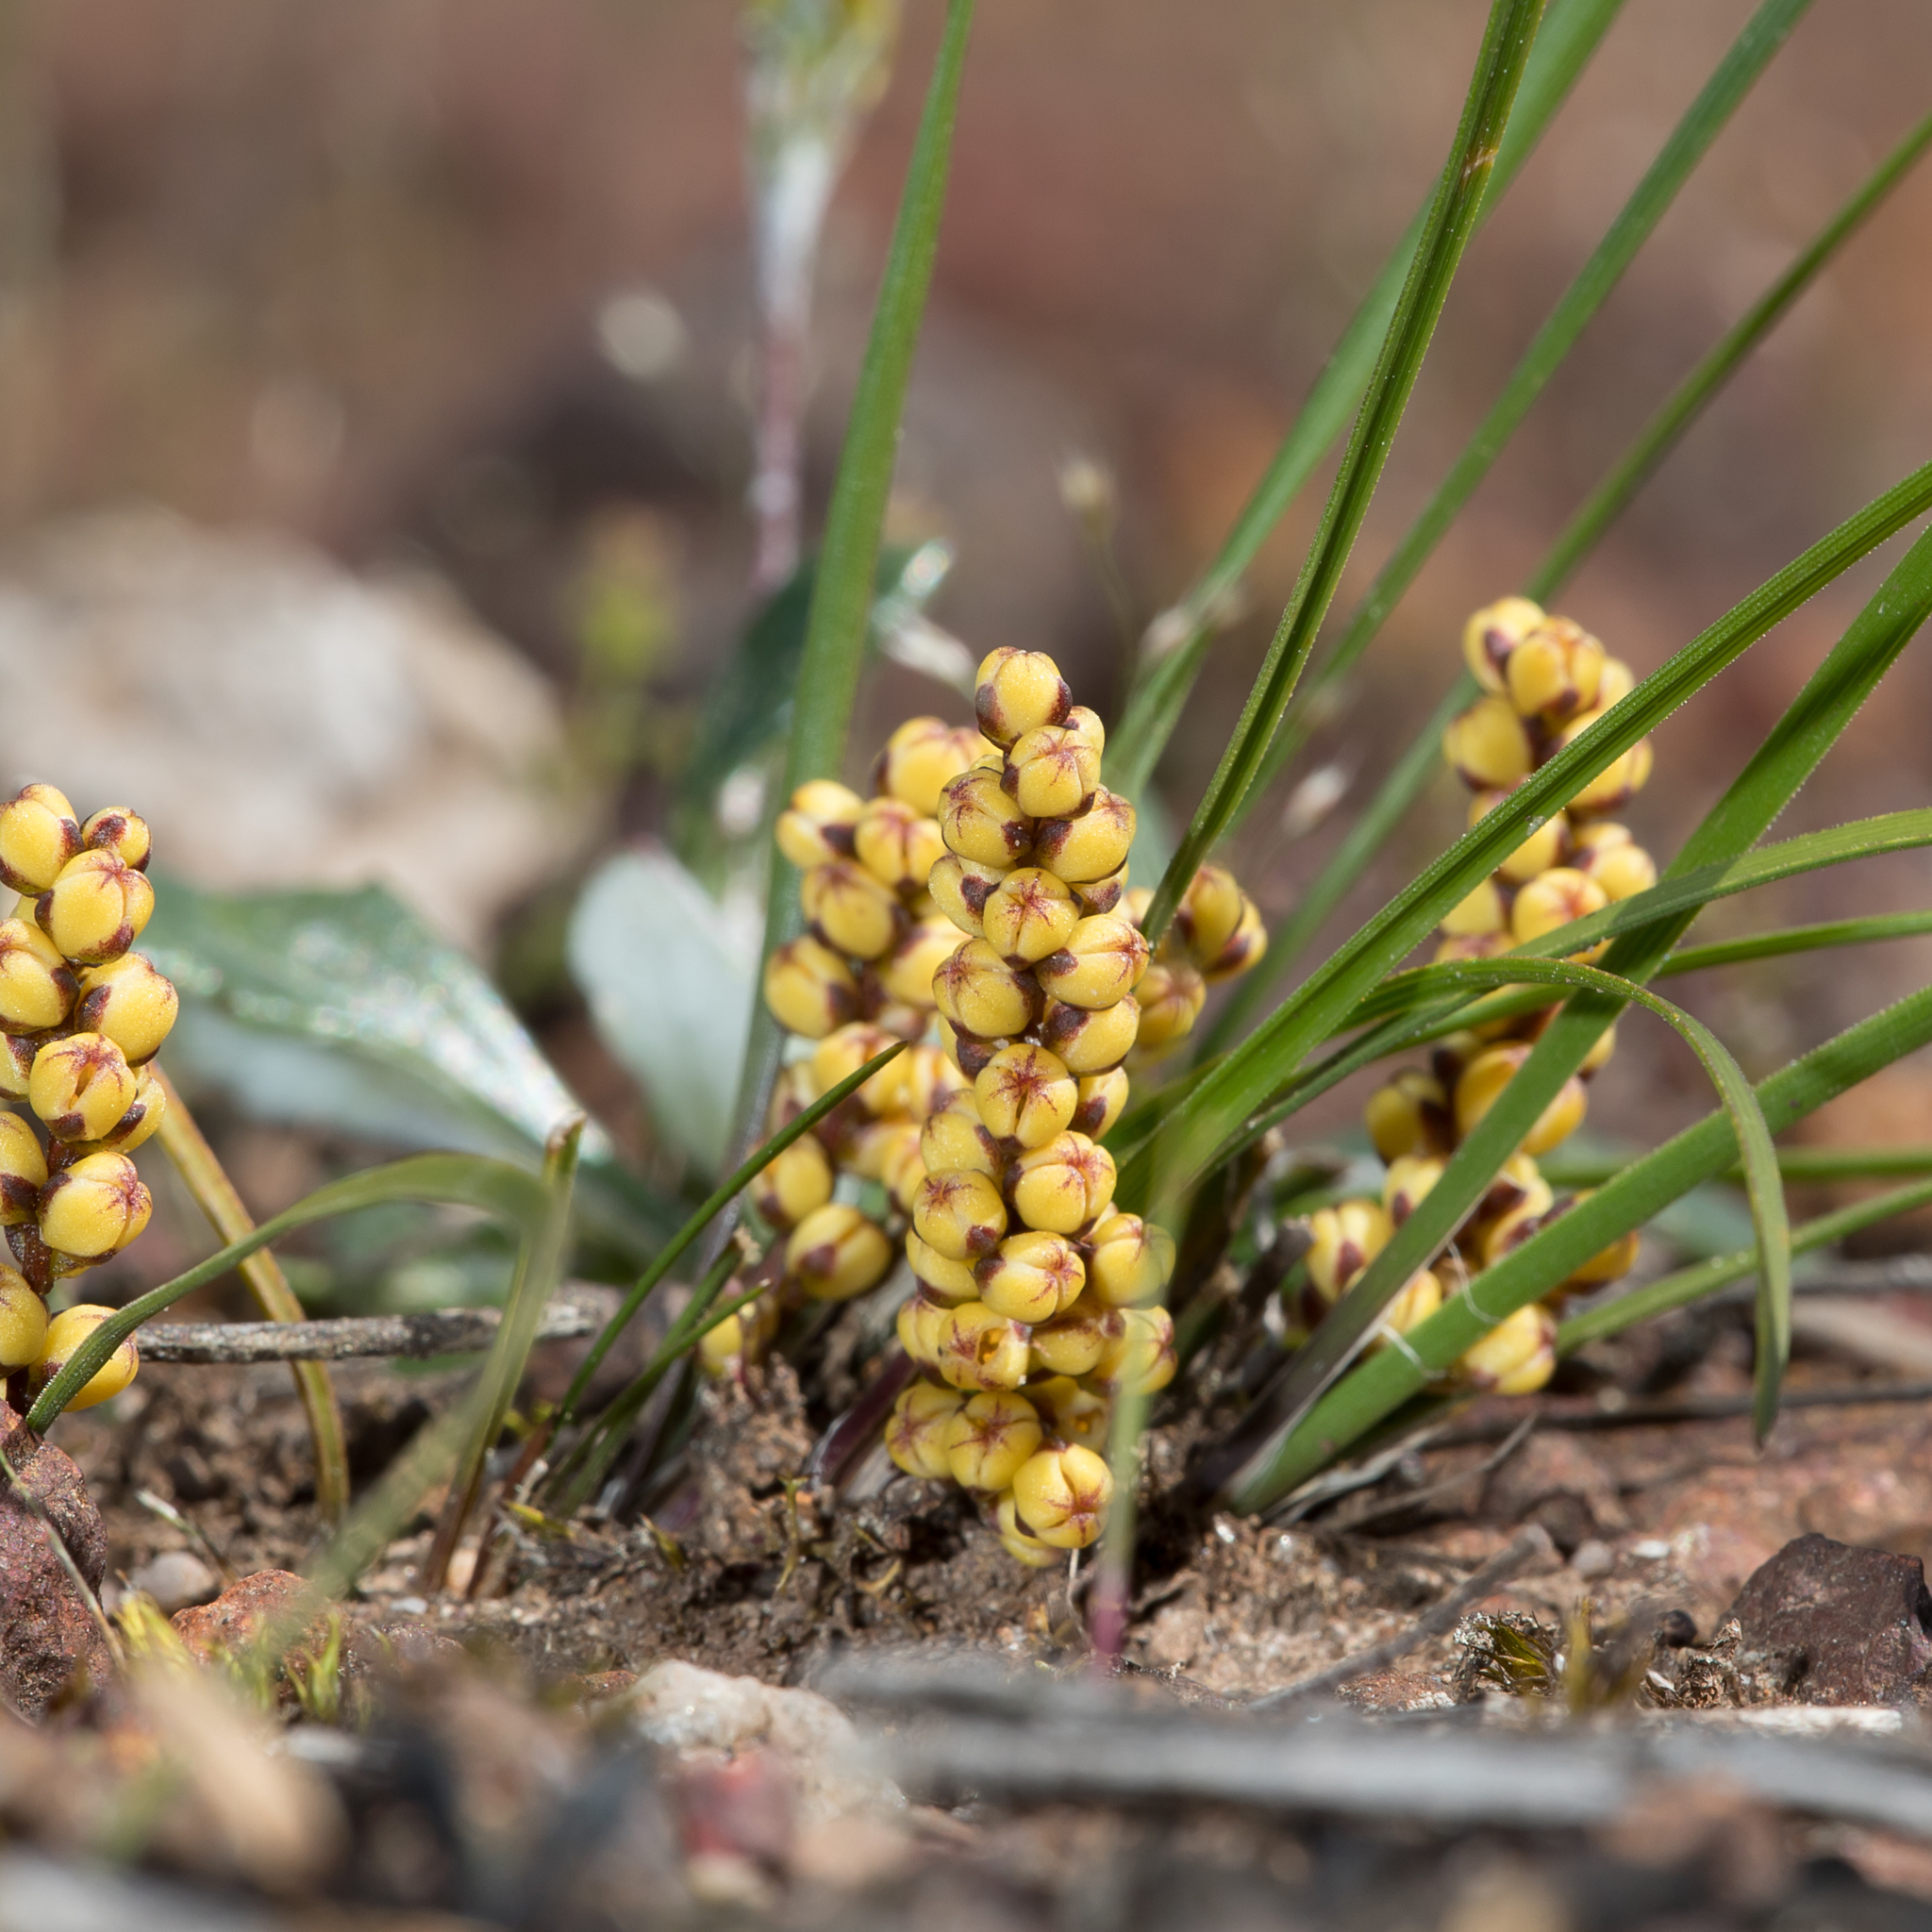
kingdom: Plantae
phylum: Tracheophyta
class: Liliopsida
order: Asparagales
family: Asparagaceae
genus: Lomandra
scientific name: Lomandra sororia
